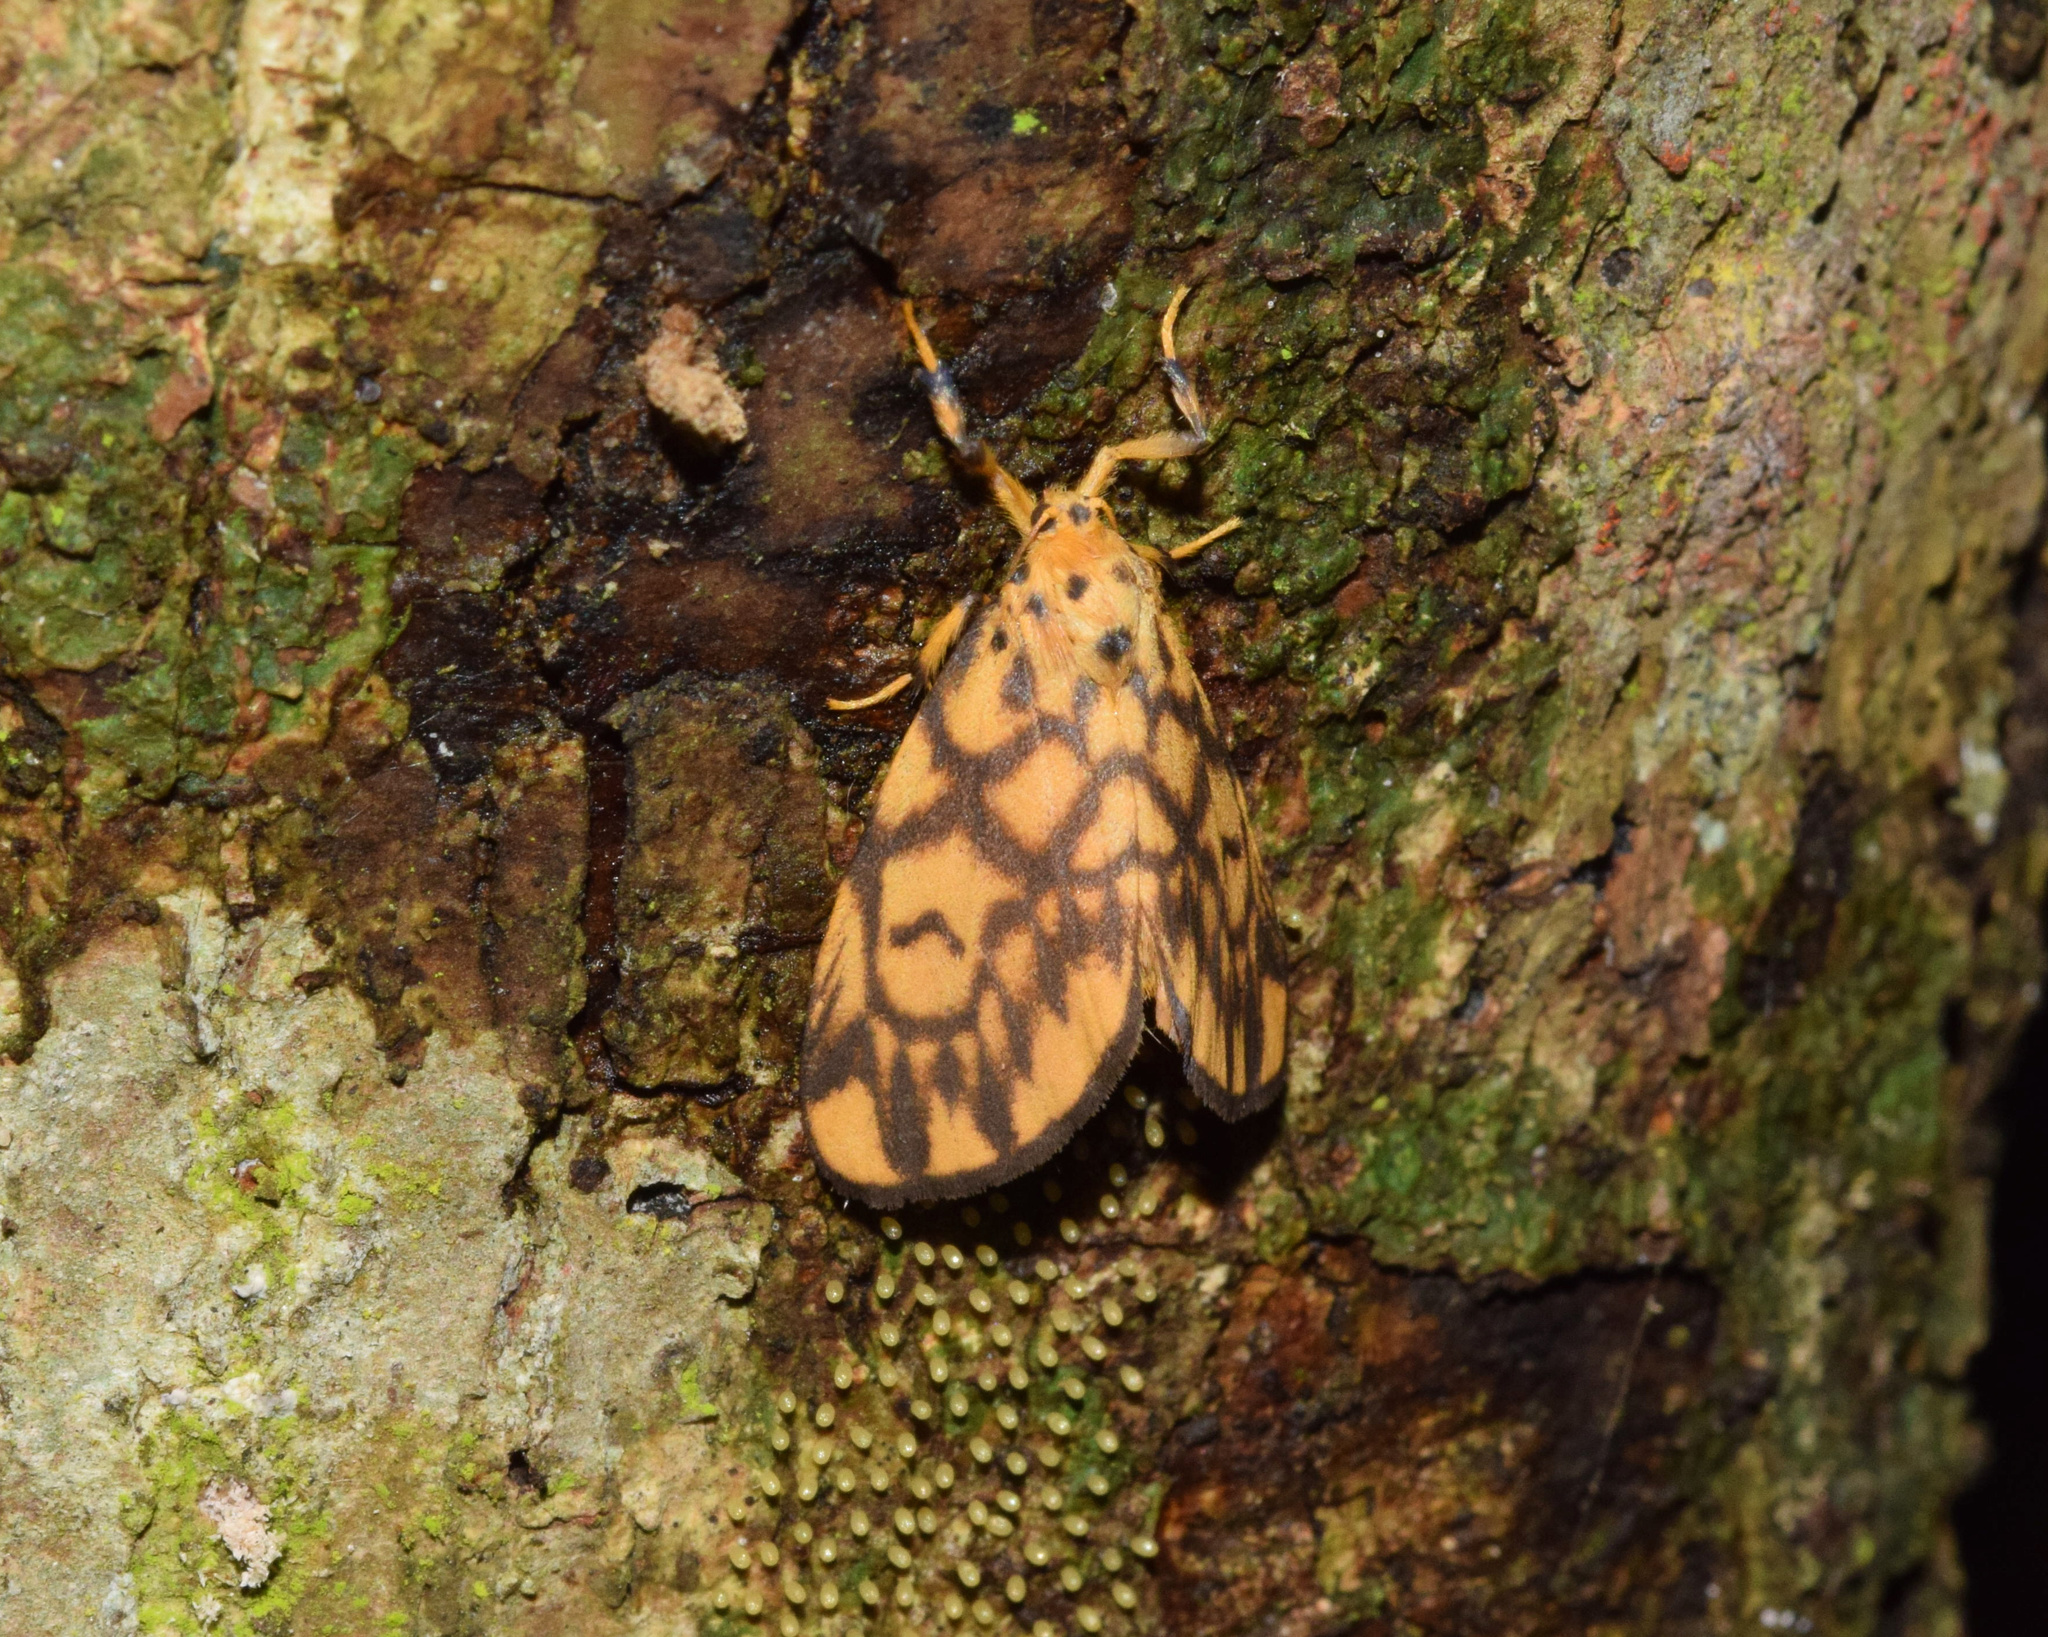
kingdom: Animalia
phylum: Arthropoda
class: Insecta
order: Lepidoptera
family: Erebidae
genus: Tumicla
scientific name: Tumicla sagenaria
